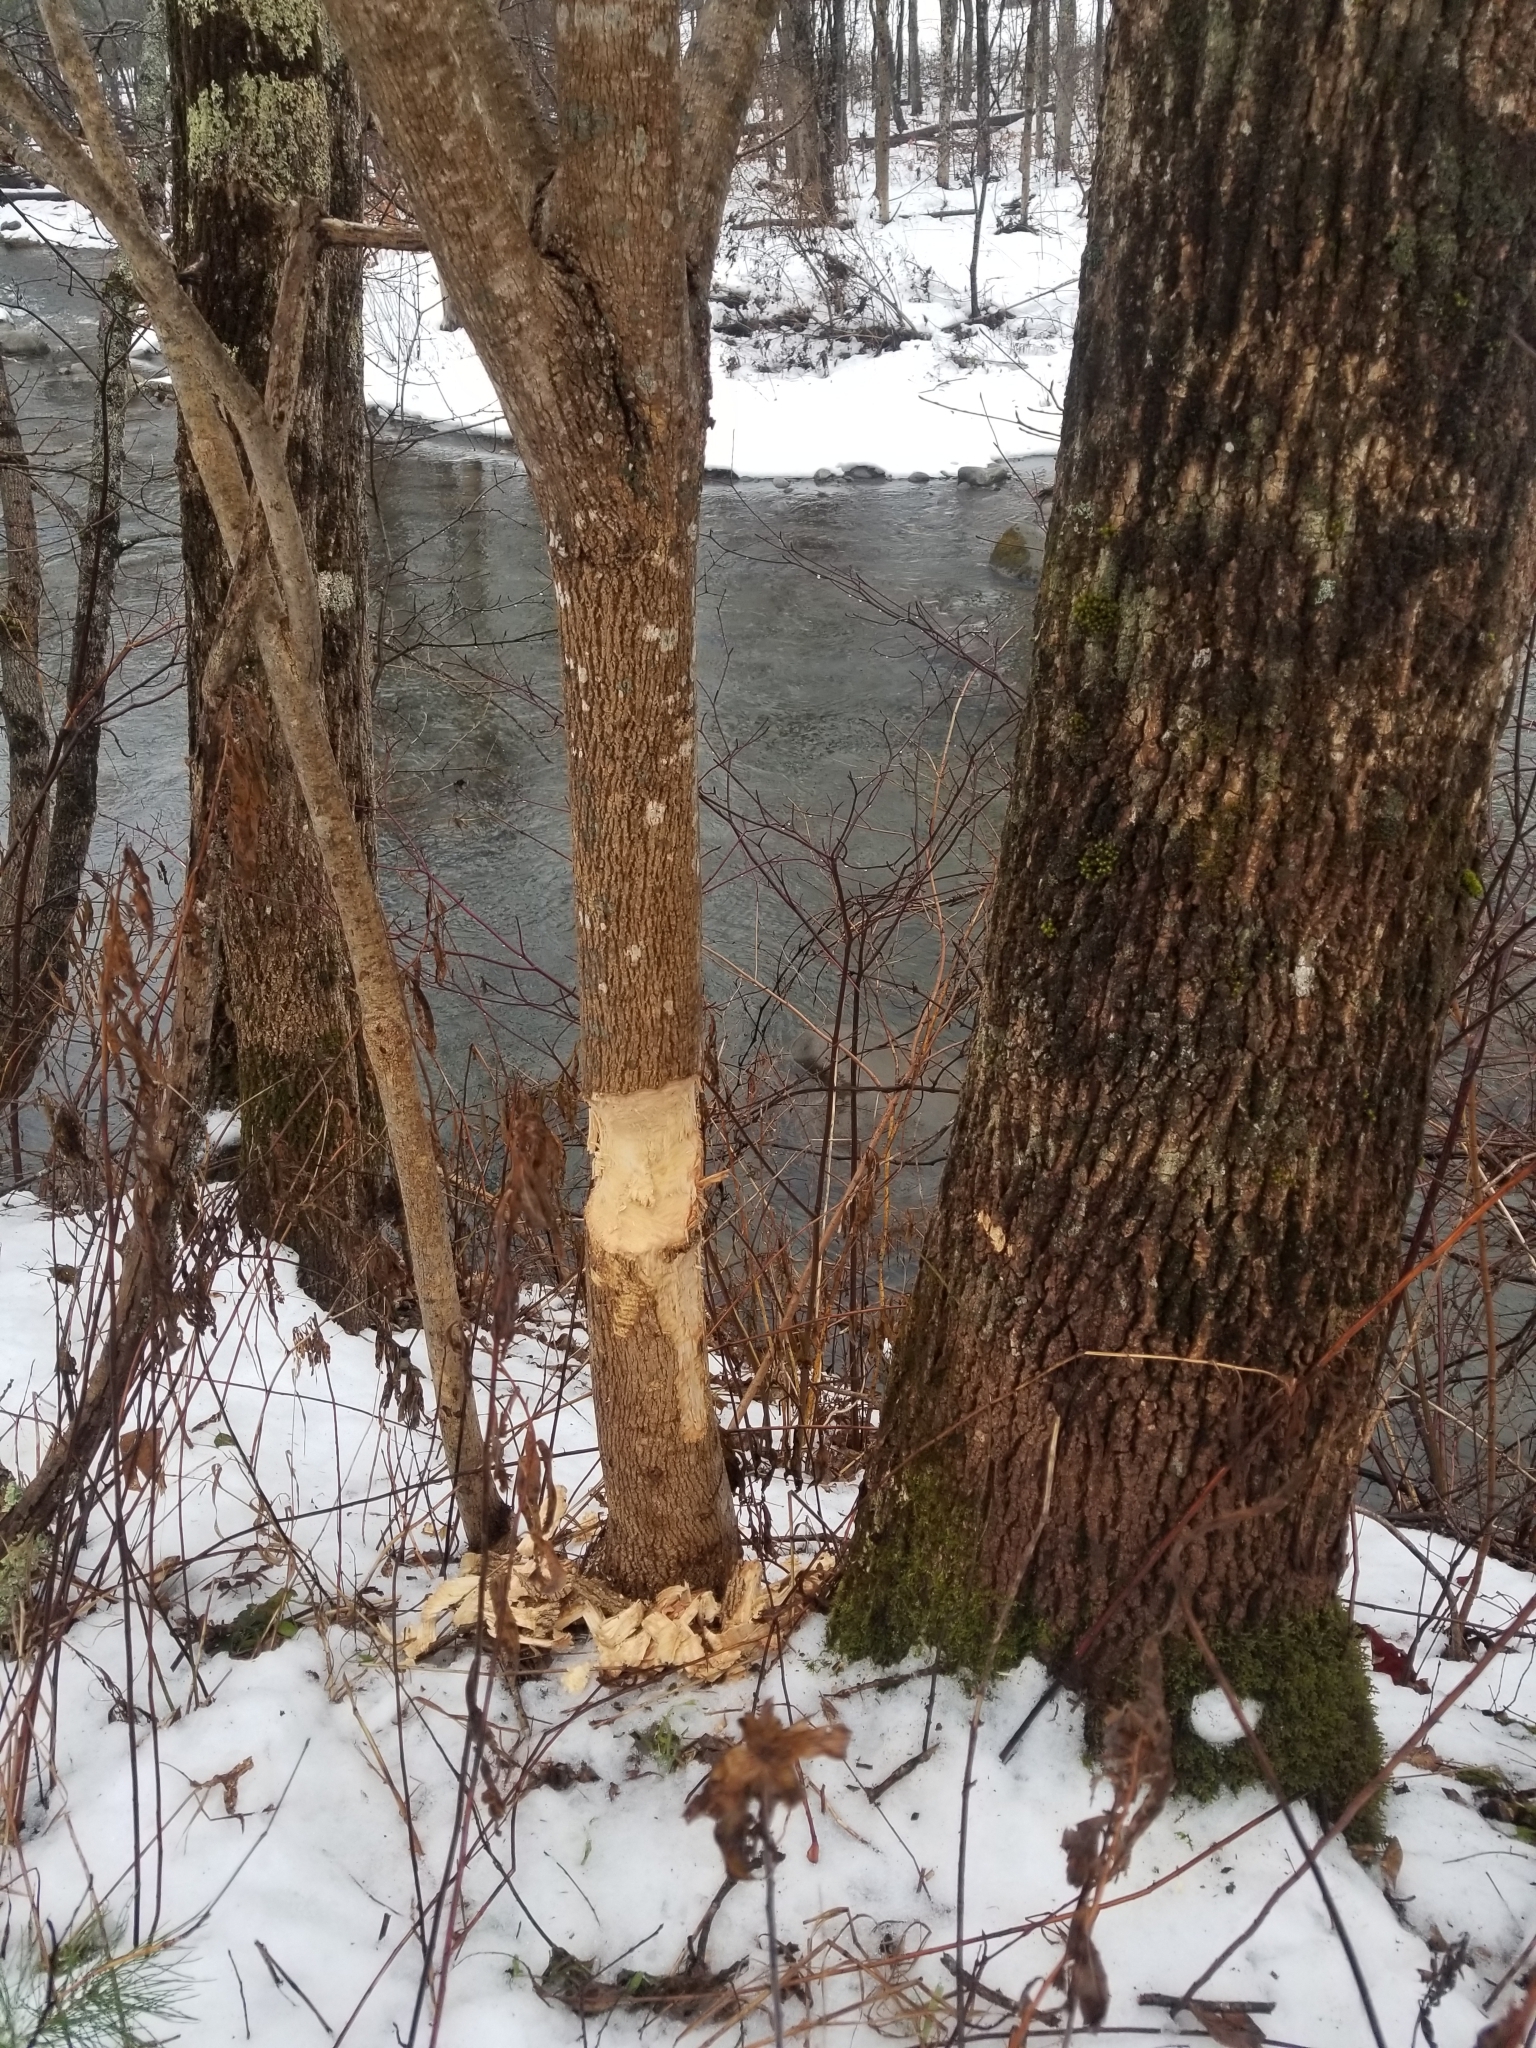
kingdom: Animalia
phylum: Chordata
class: Mammalia
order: Rodentia
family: Castoridae
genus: Castor
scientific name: Castor canadensis
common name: American beaver
